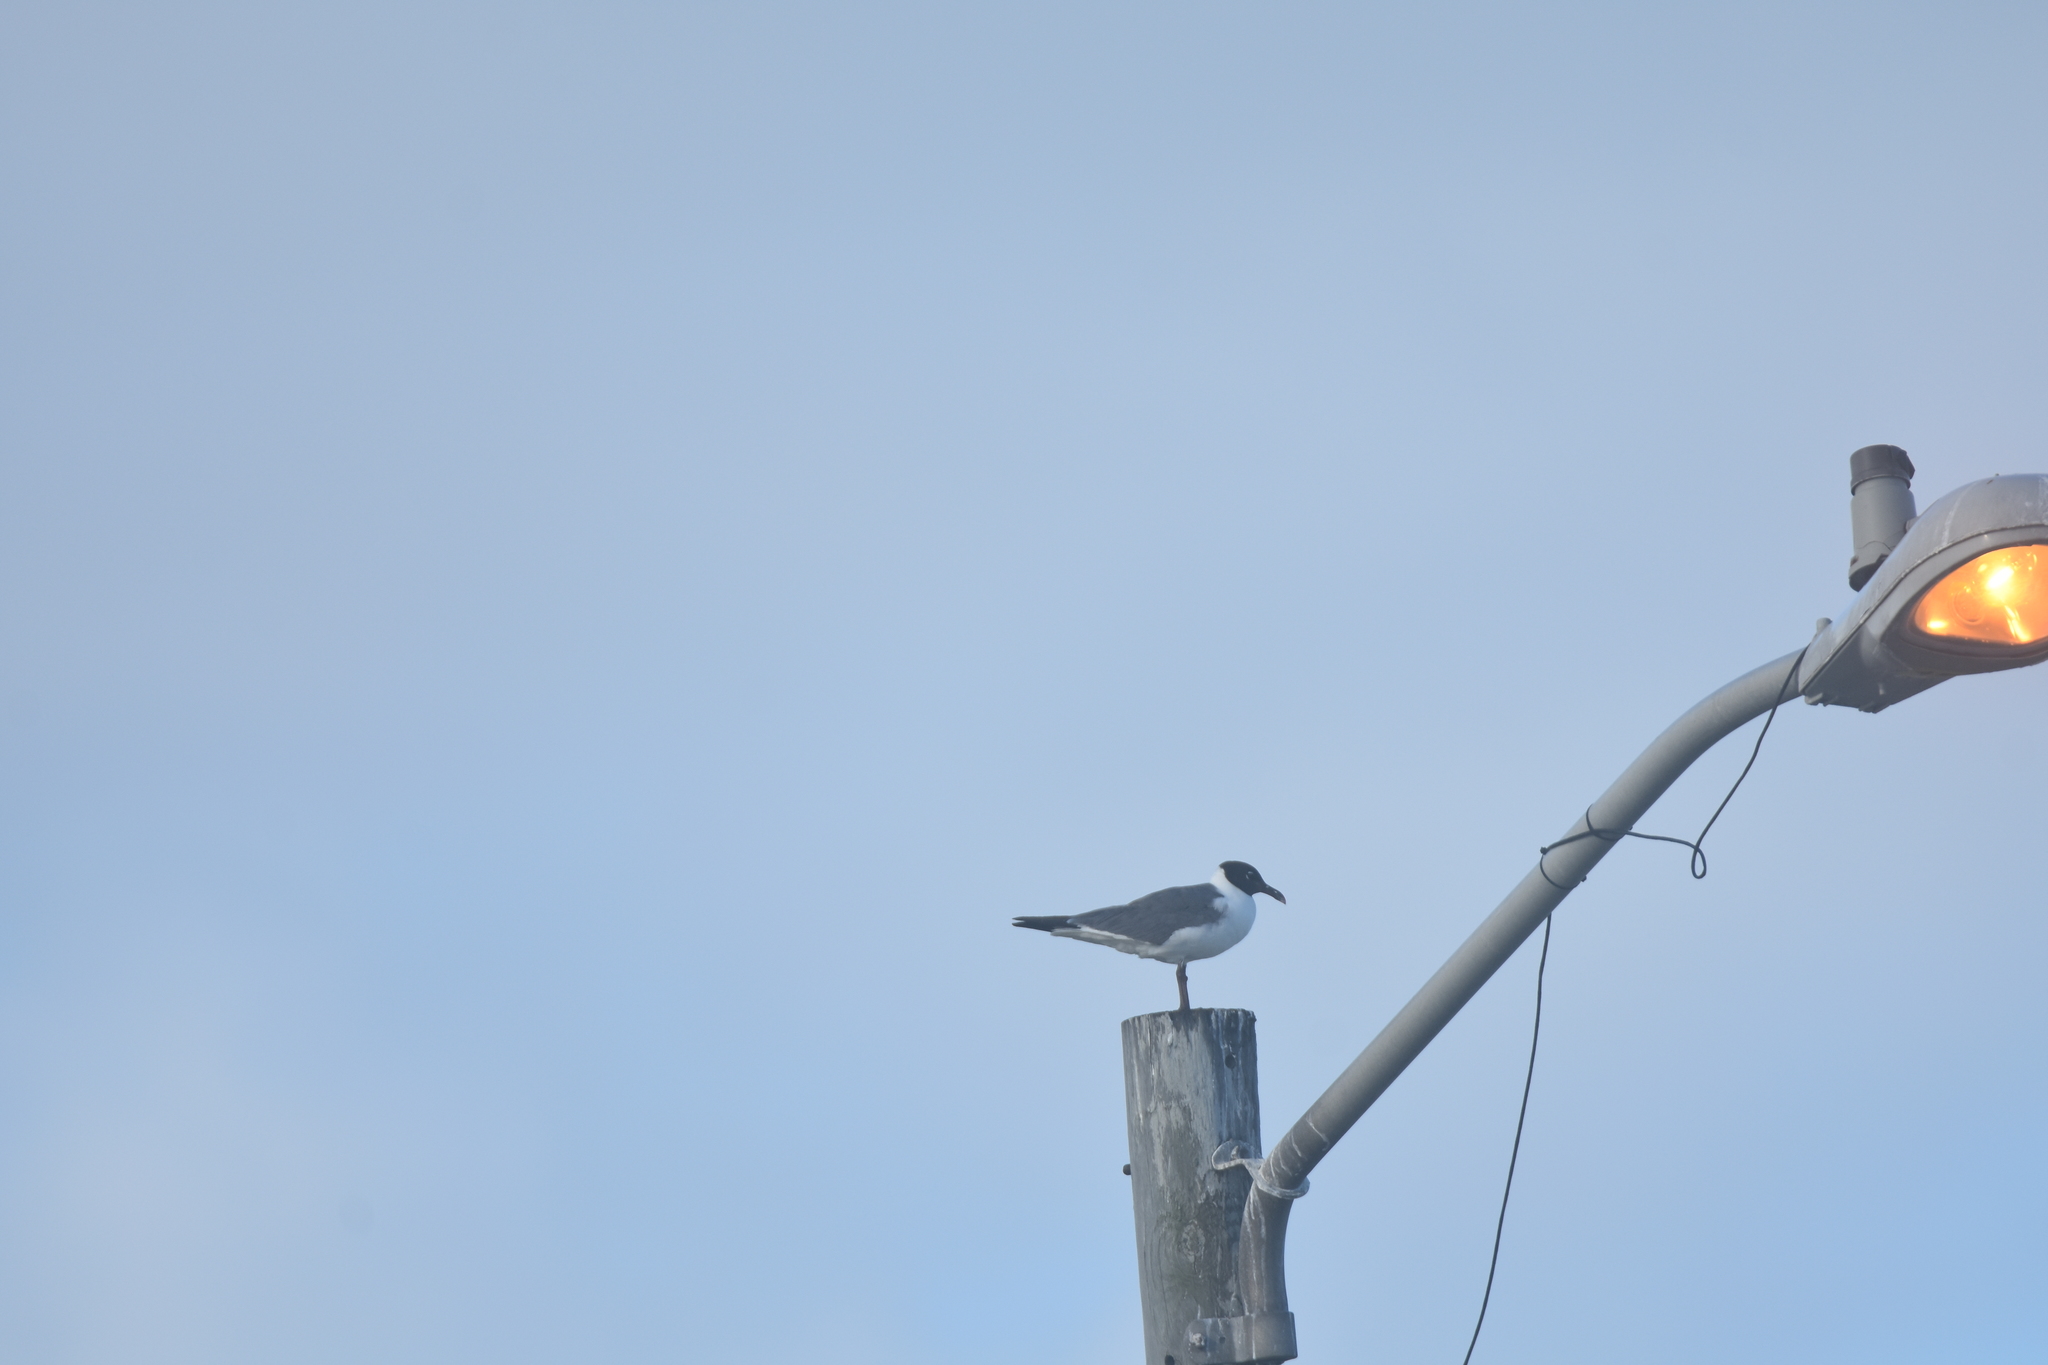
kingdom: Animalia
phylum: Chordata
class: Aves
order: Charadriiformes
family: Laridae
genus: Leucophaeus
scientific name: Leucophaeus atricilla
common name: Laughing gull
